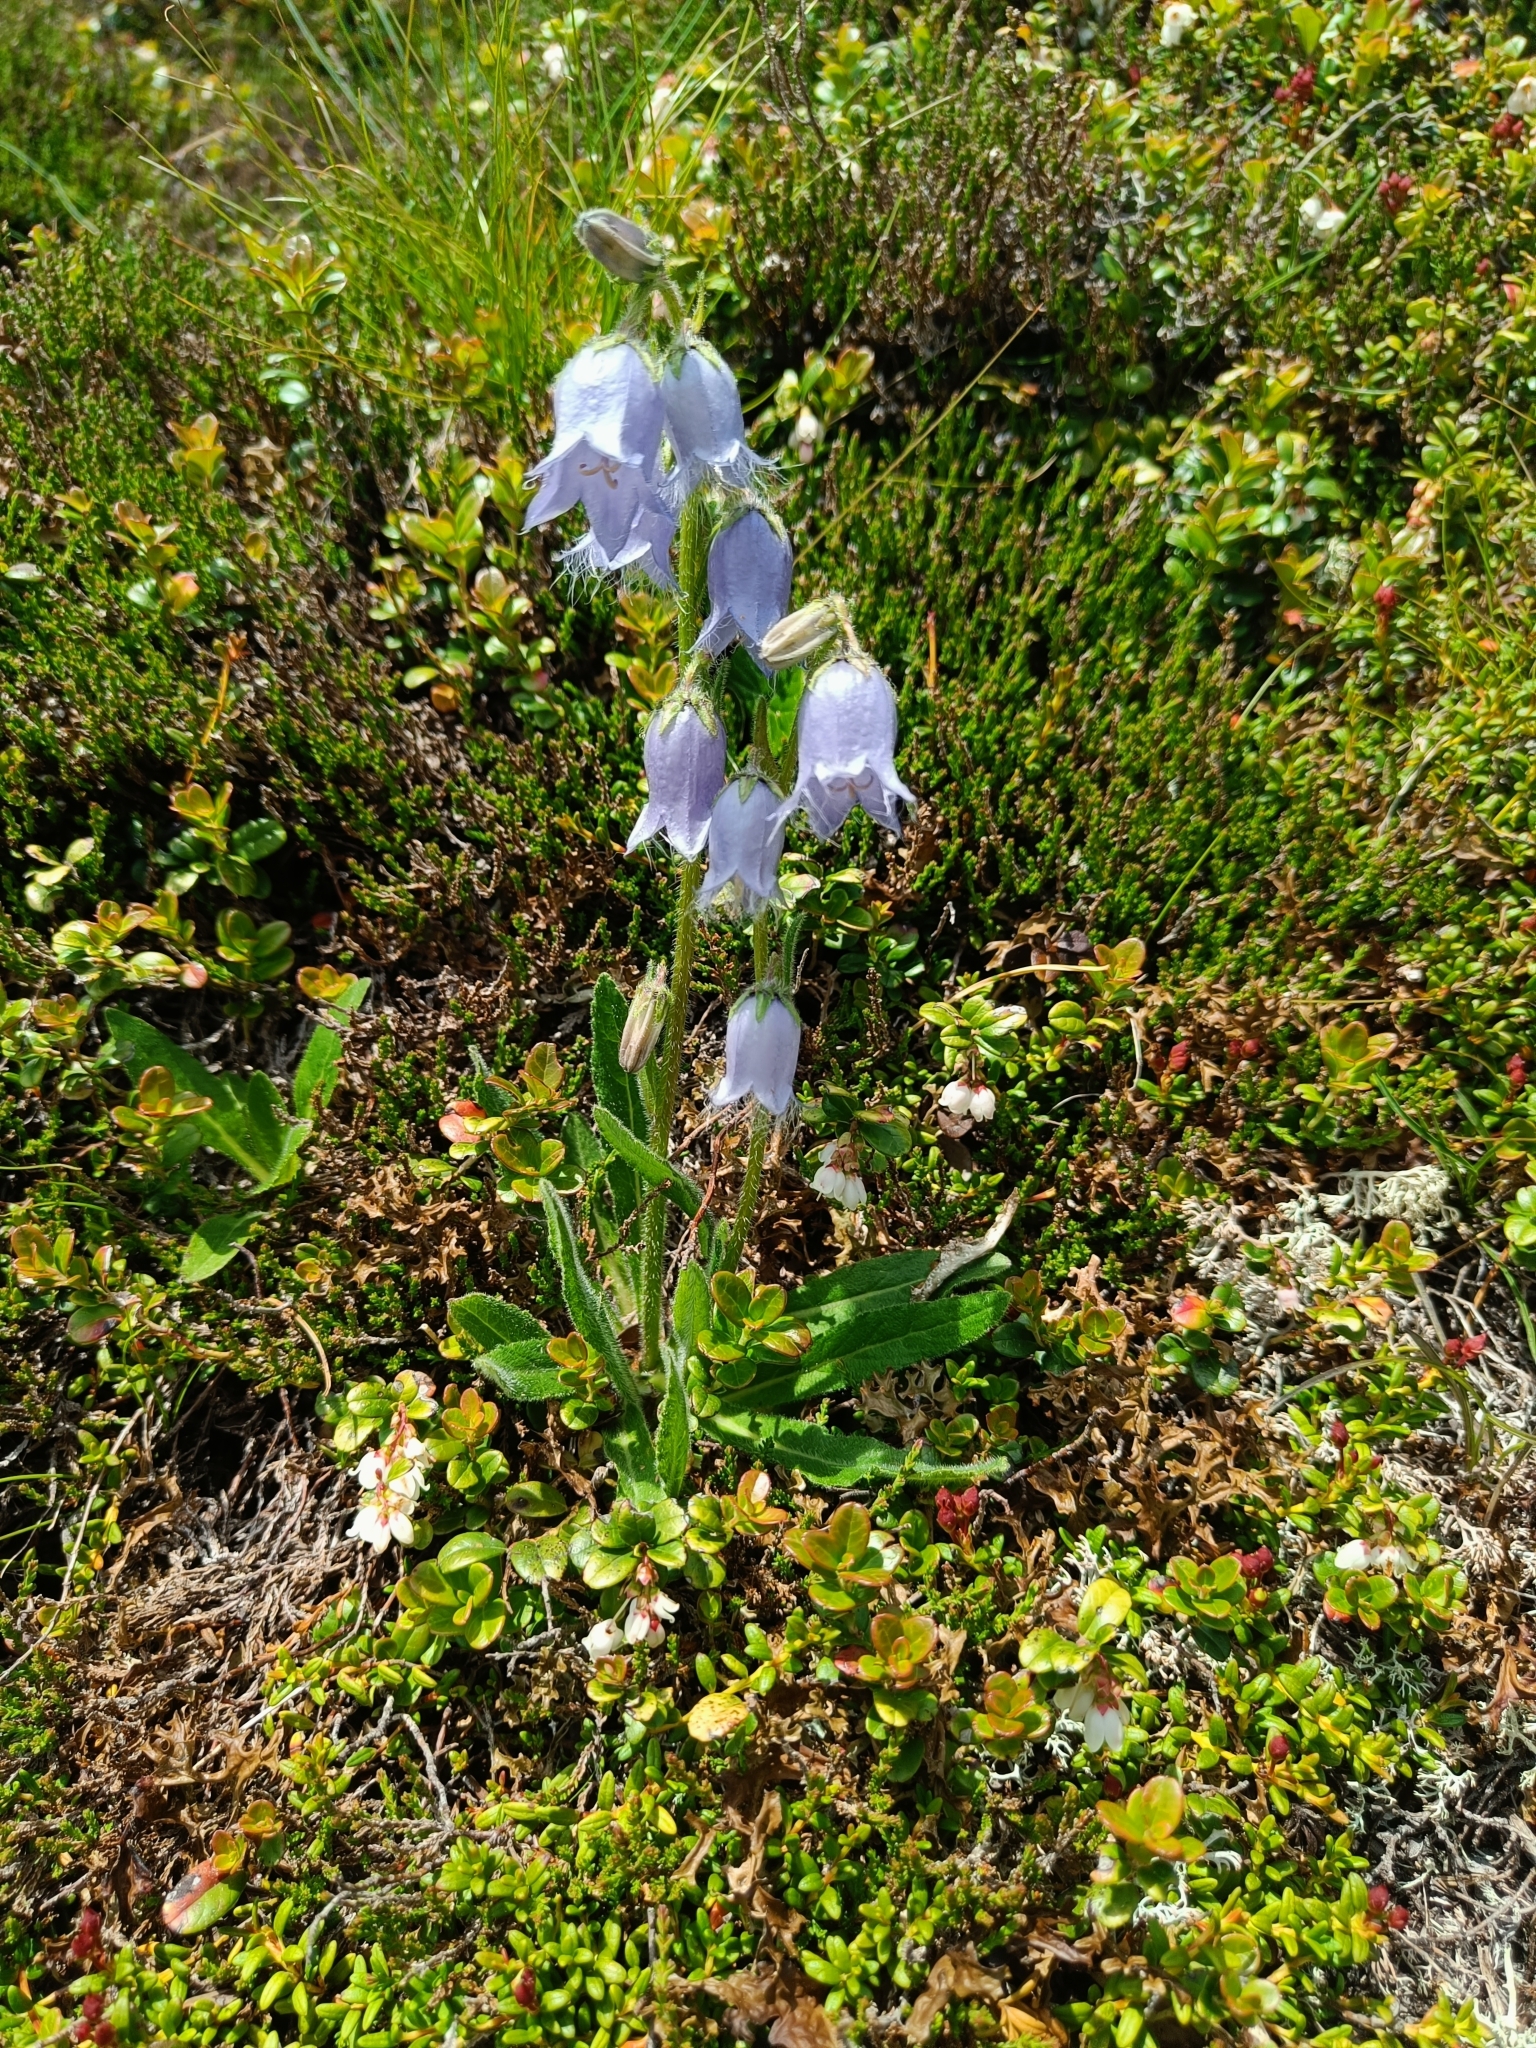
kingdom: Plantae
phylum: Tracheophyta
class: Magnoliopsida
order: Asterales
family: Campanulaceae
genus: Campanula
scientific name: Campanula barbata
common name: Bearded bellflower
